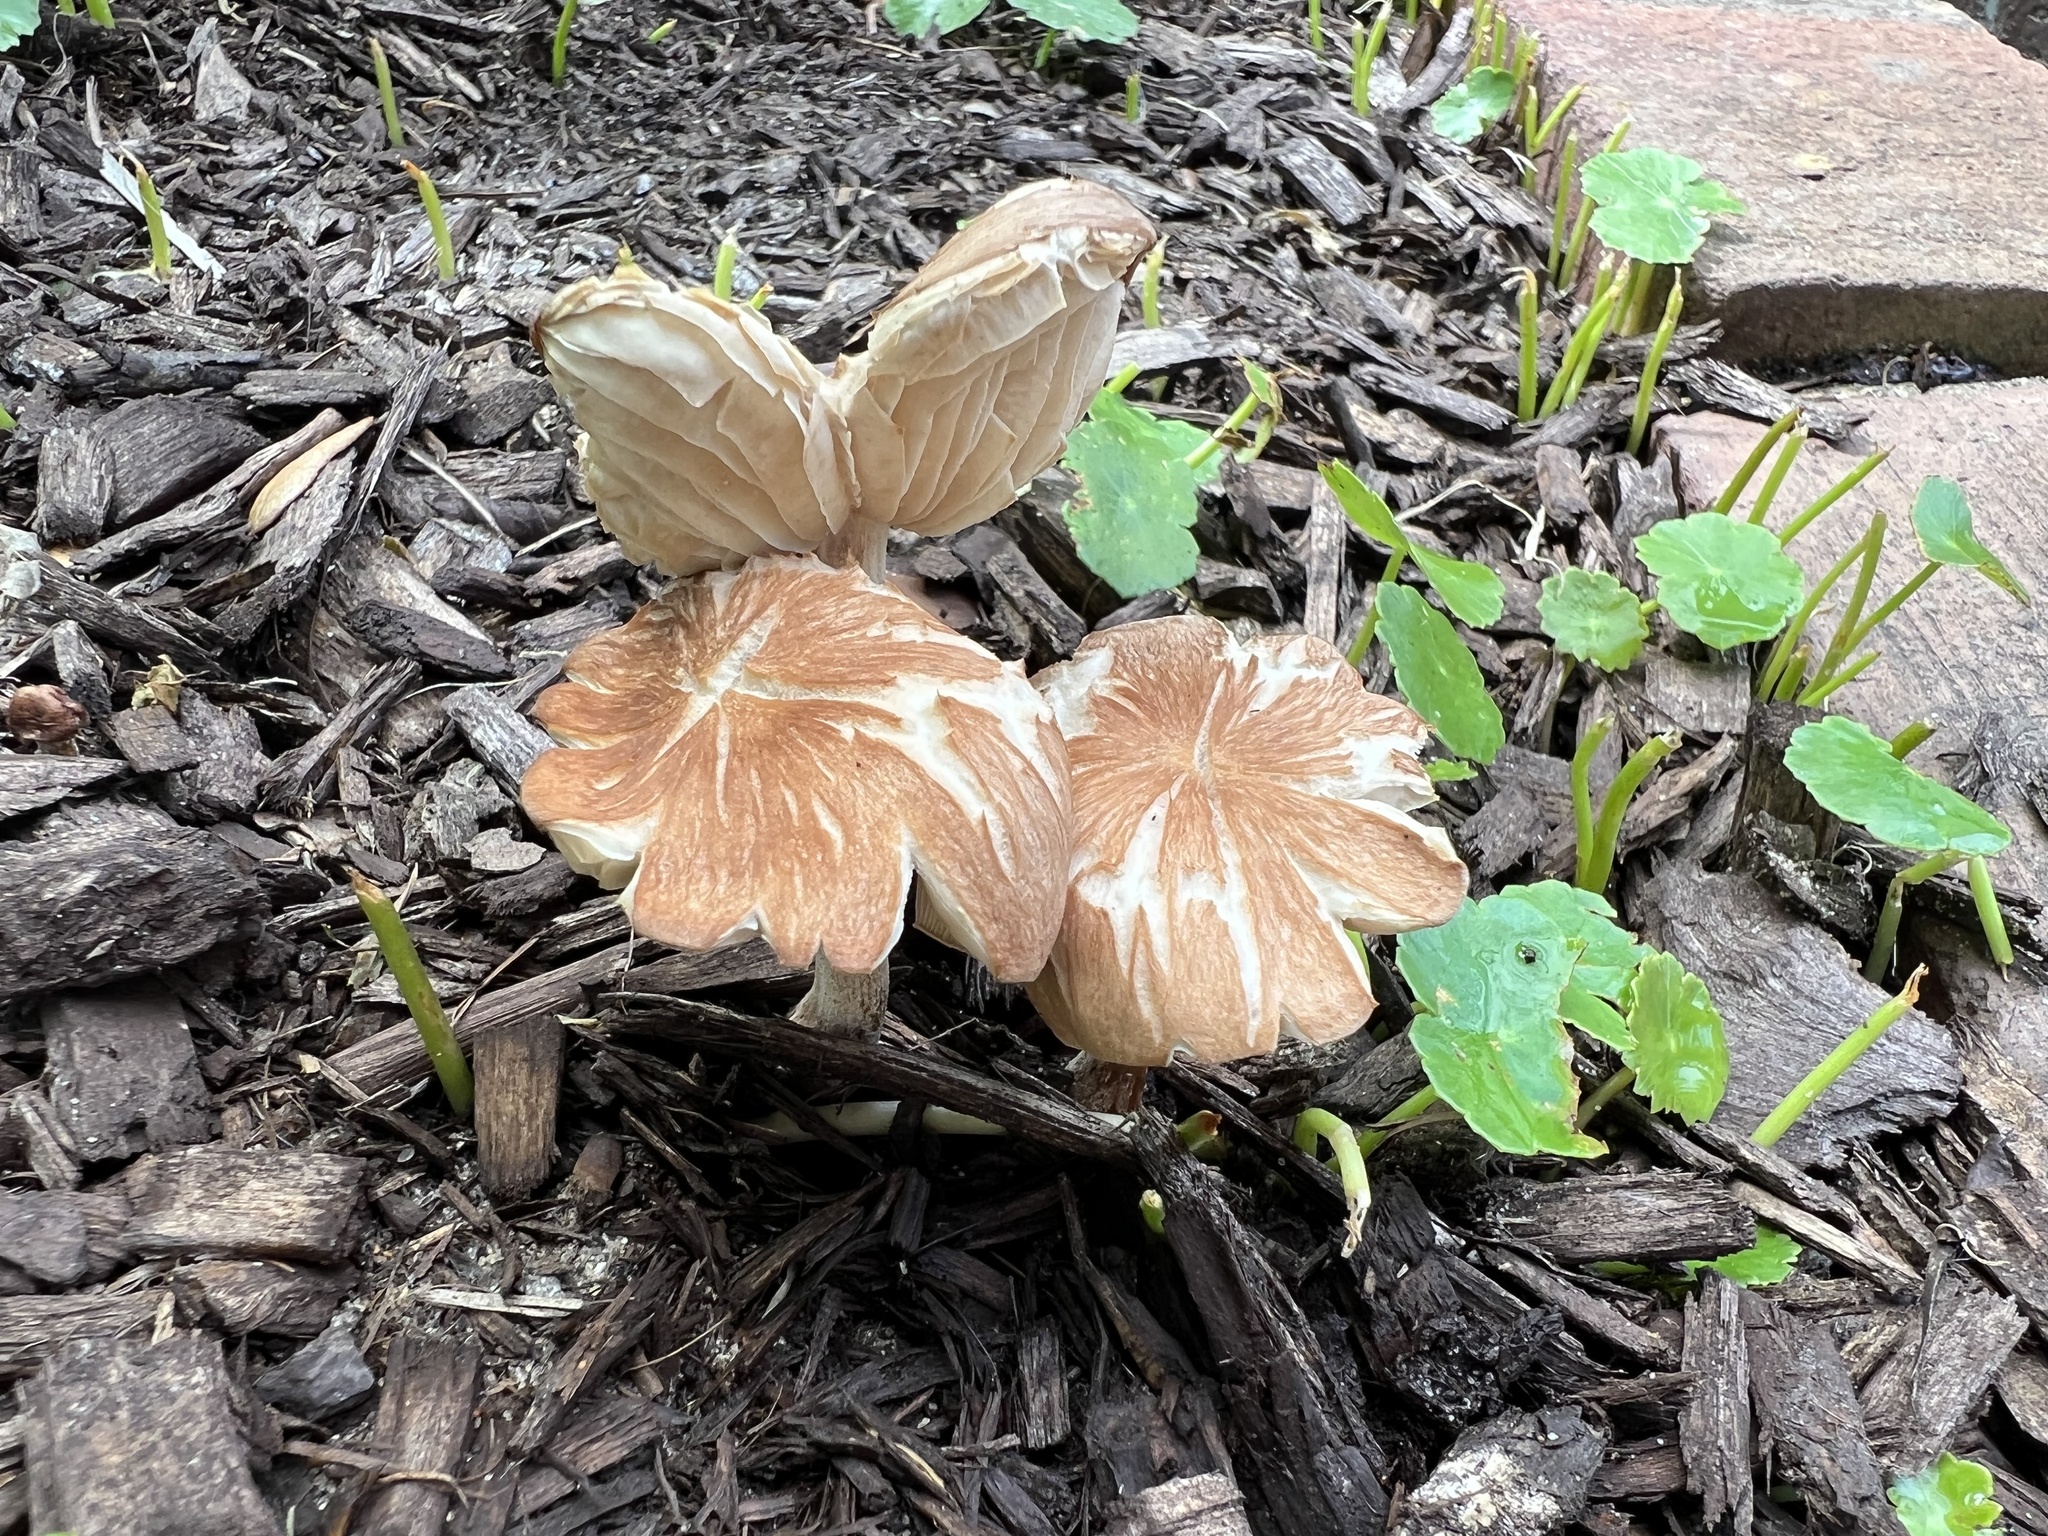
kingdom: Fungi
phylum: Basidiomycota
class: Agaricomycetes
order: Agaricales
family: Omphalotaceae
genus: Collybiopsis
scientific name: Collybiopsis luxurians
